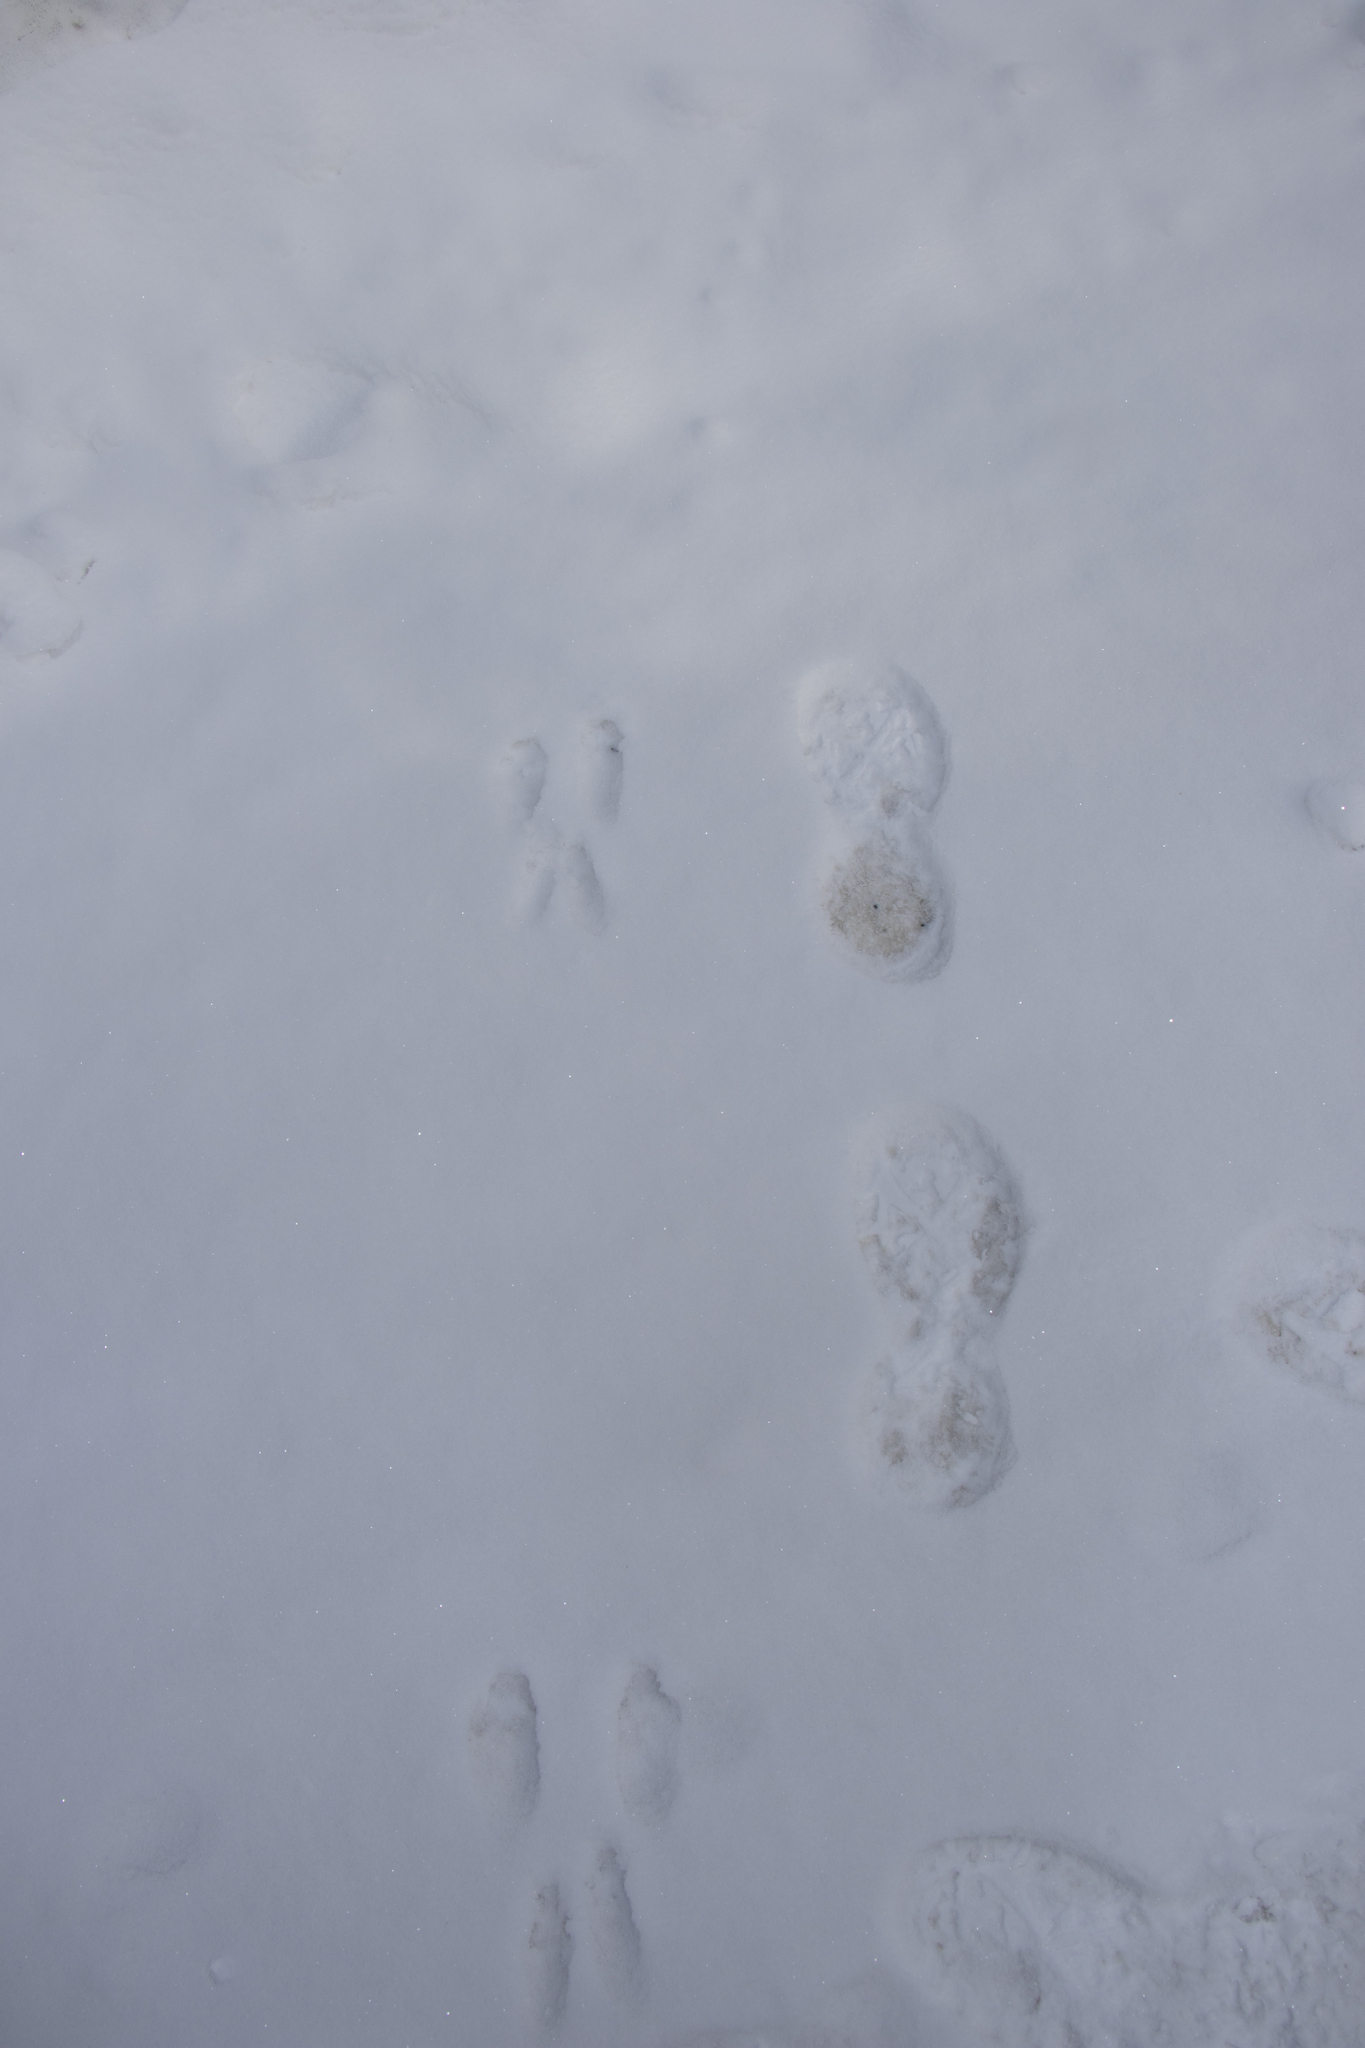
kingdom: Animalia
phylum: Chordata
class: Mammalia
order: Rodentia
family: Sciuridae
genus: Sciurus
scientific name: Sciurus vulgaris
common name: Eurasian red squirrel
